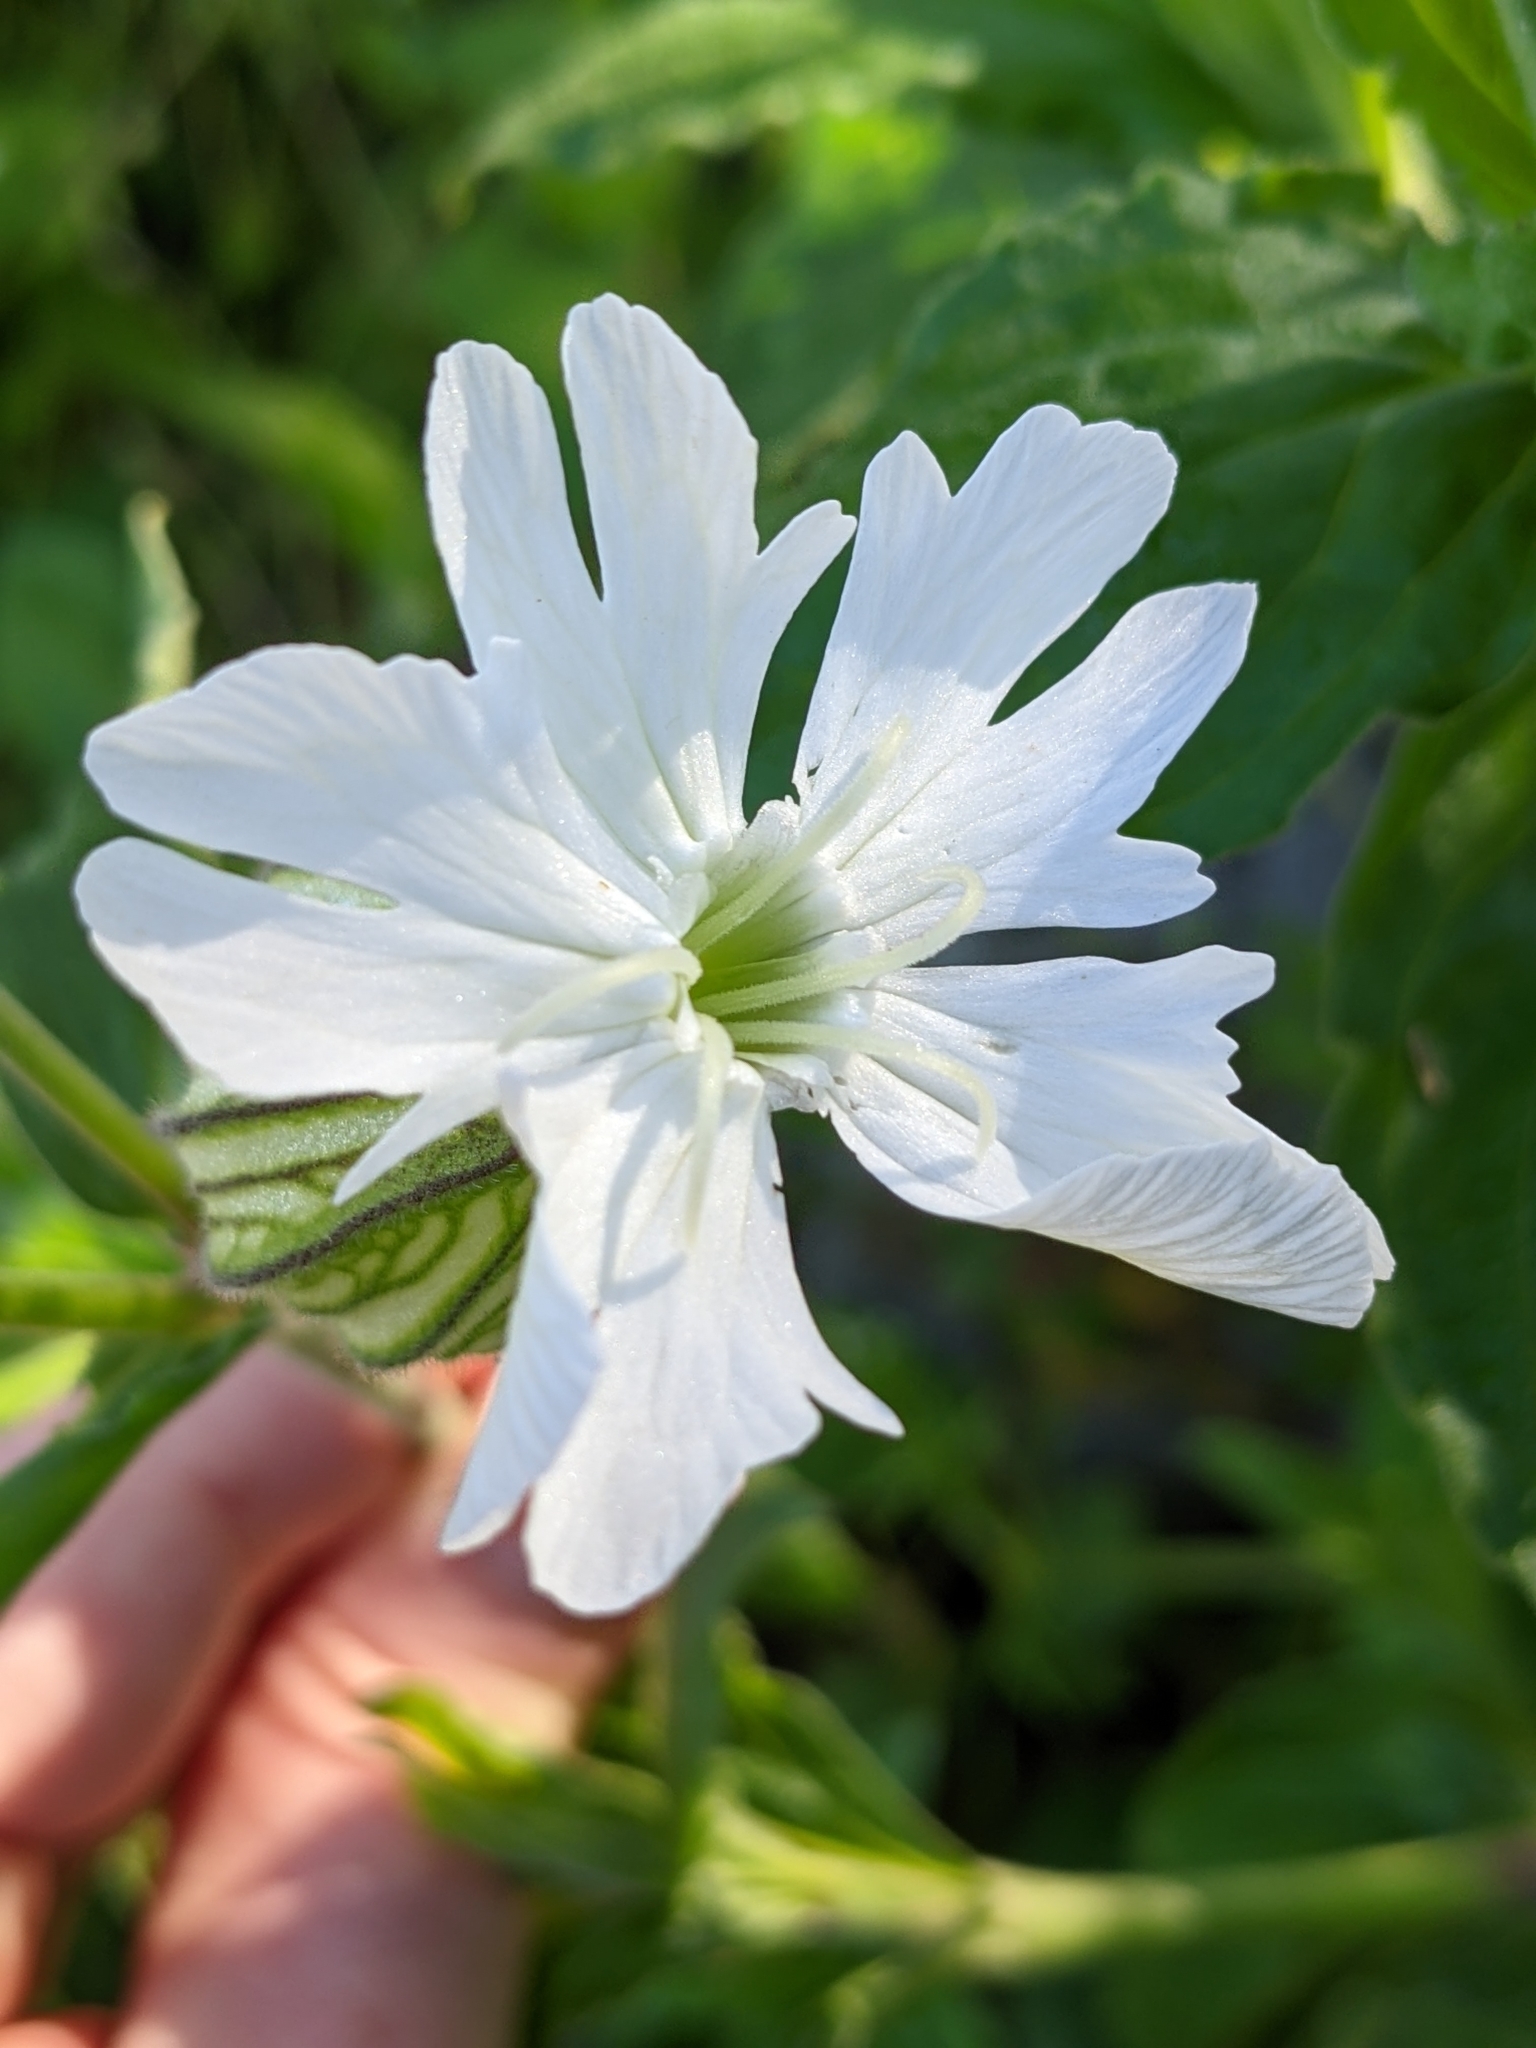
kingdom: Plantae
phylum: Tracheophyta
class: Magnoliopsida
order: Caryophyllales
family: Caryophyllaceae
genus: Silene
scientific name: Silene latifolia
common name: White campion
